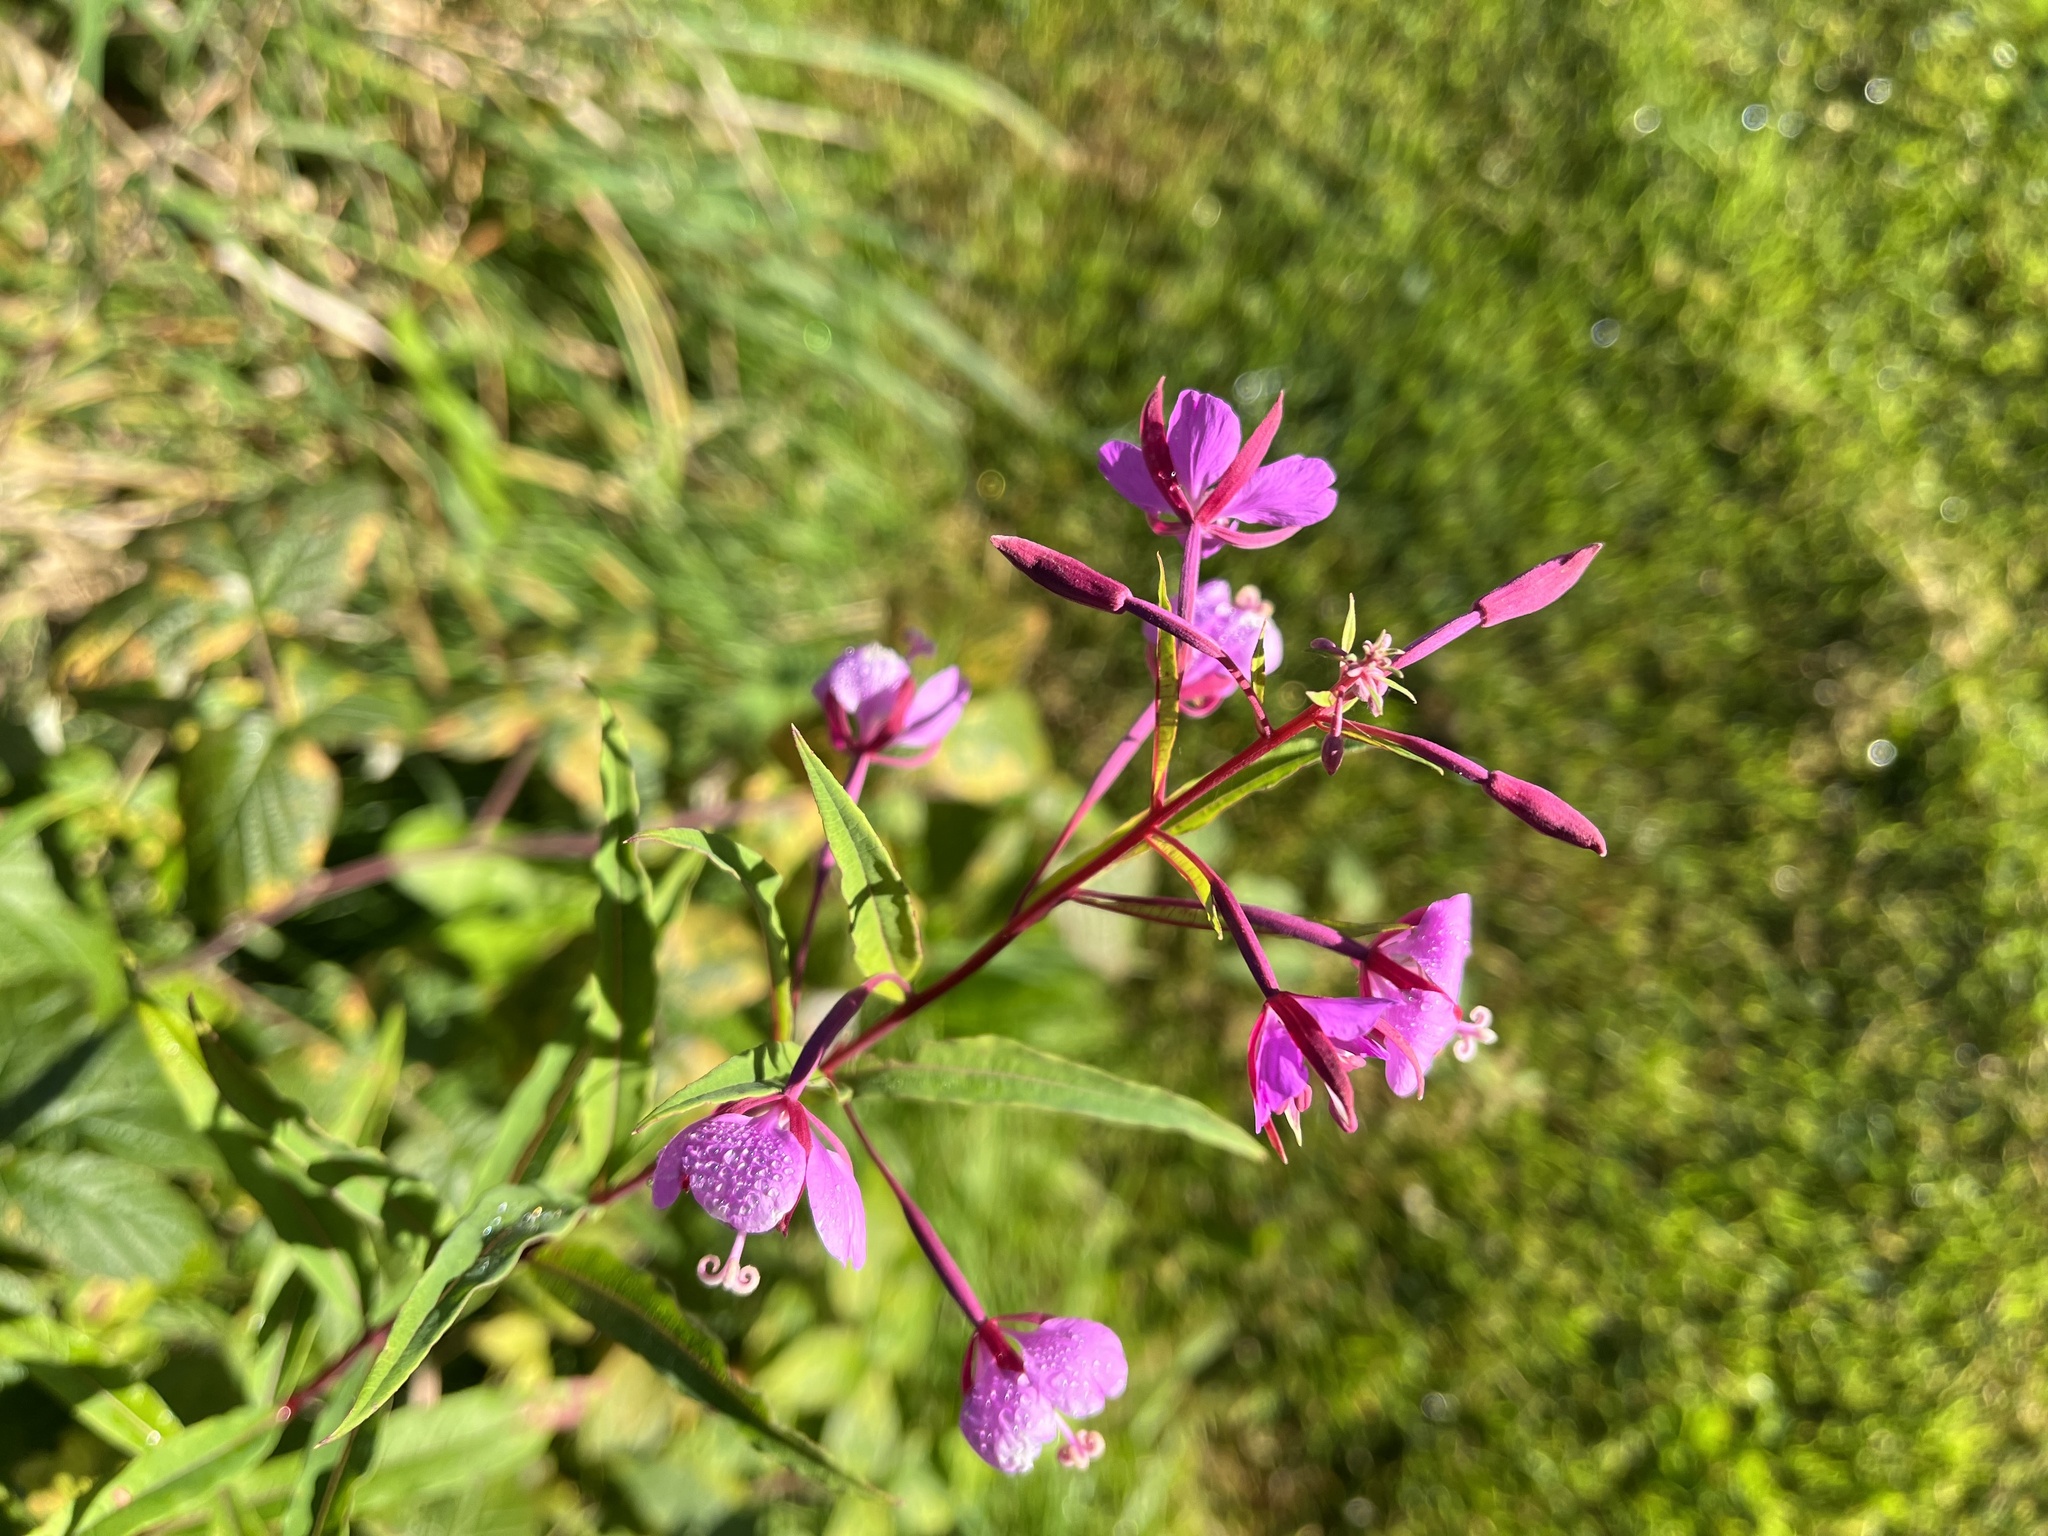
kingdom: Plantae
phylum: Tracheophyta
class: Magnoliopsida
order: Myrtales
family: Onagraceae
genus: Chamaenerion
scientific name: Chamaenerion angustifolium
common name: Fireweed
